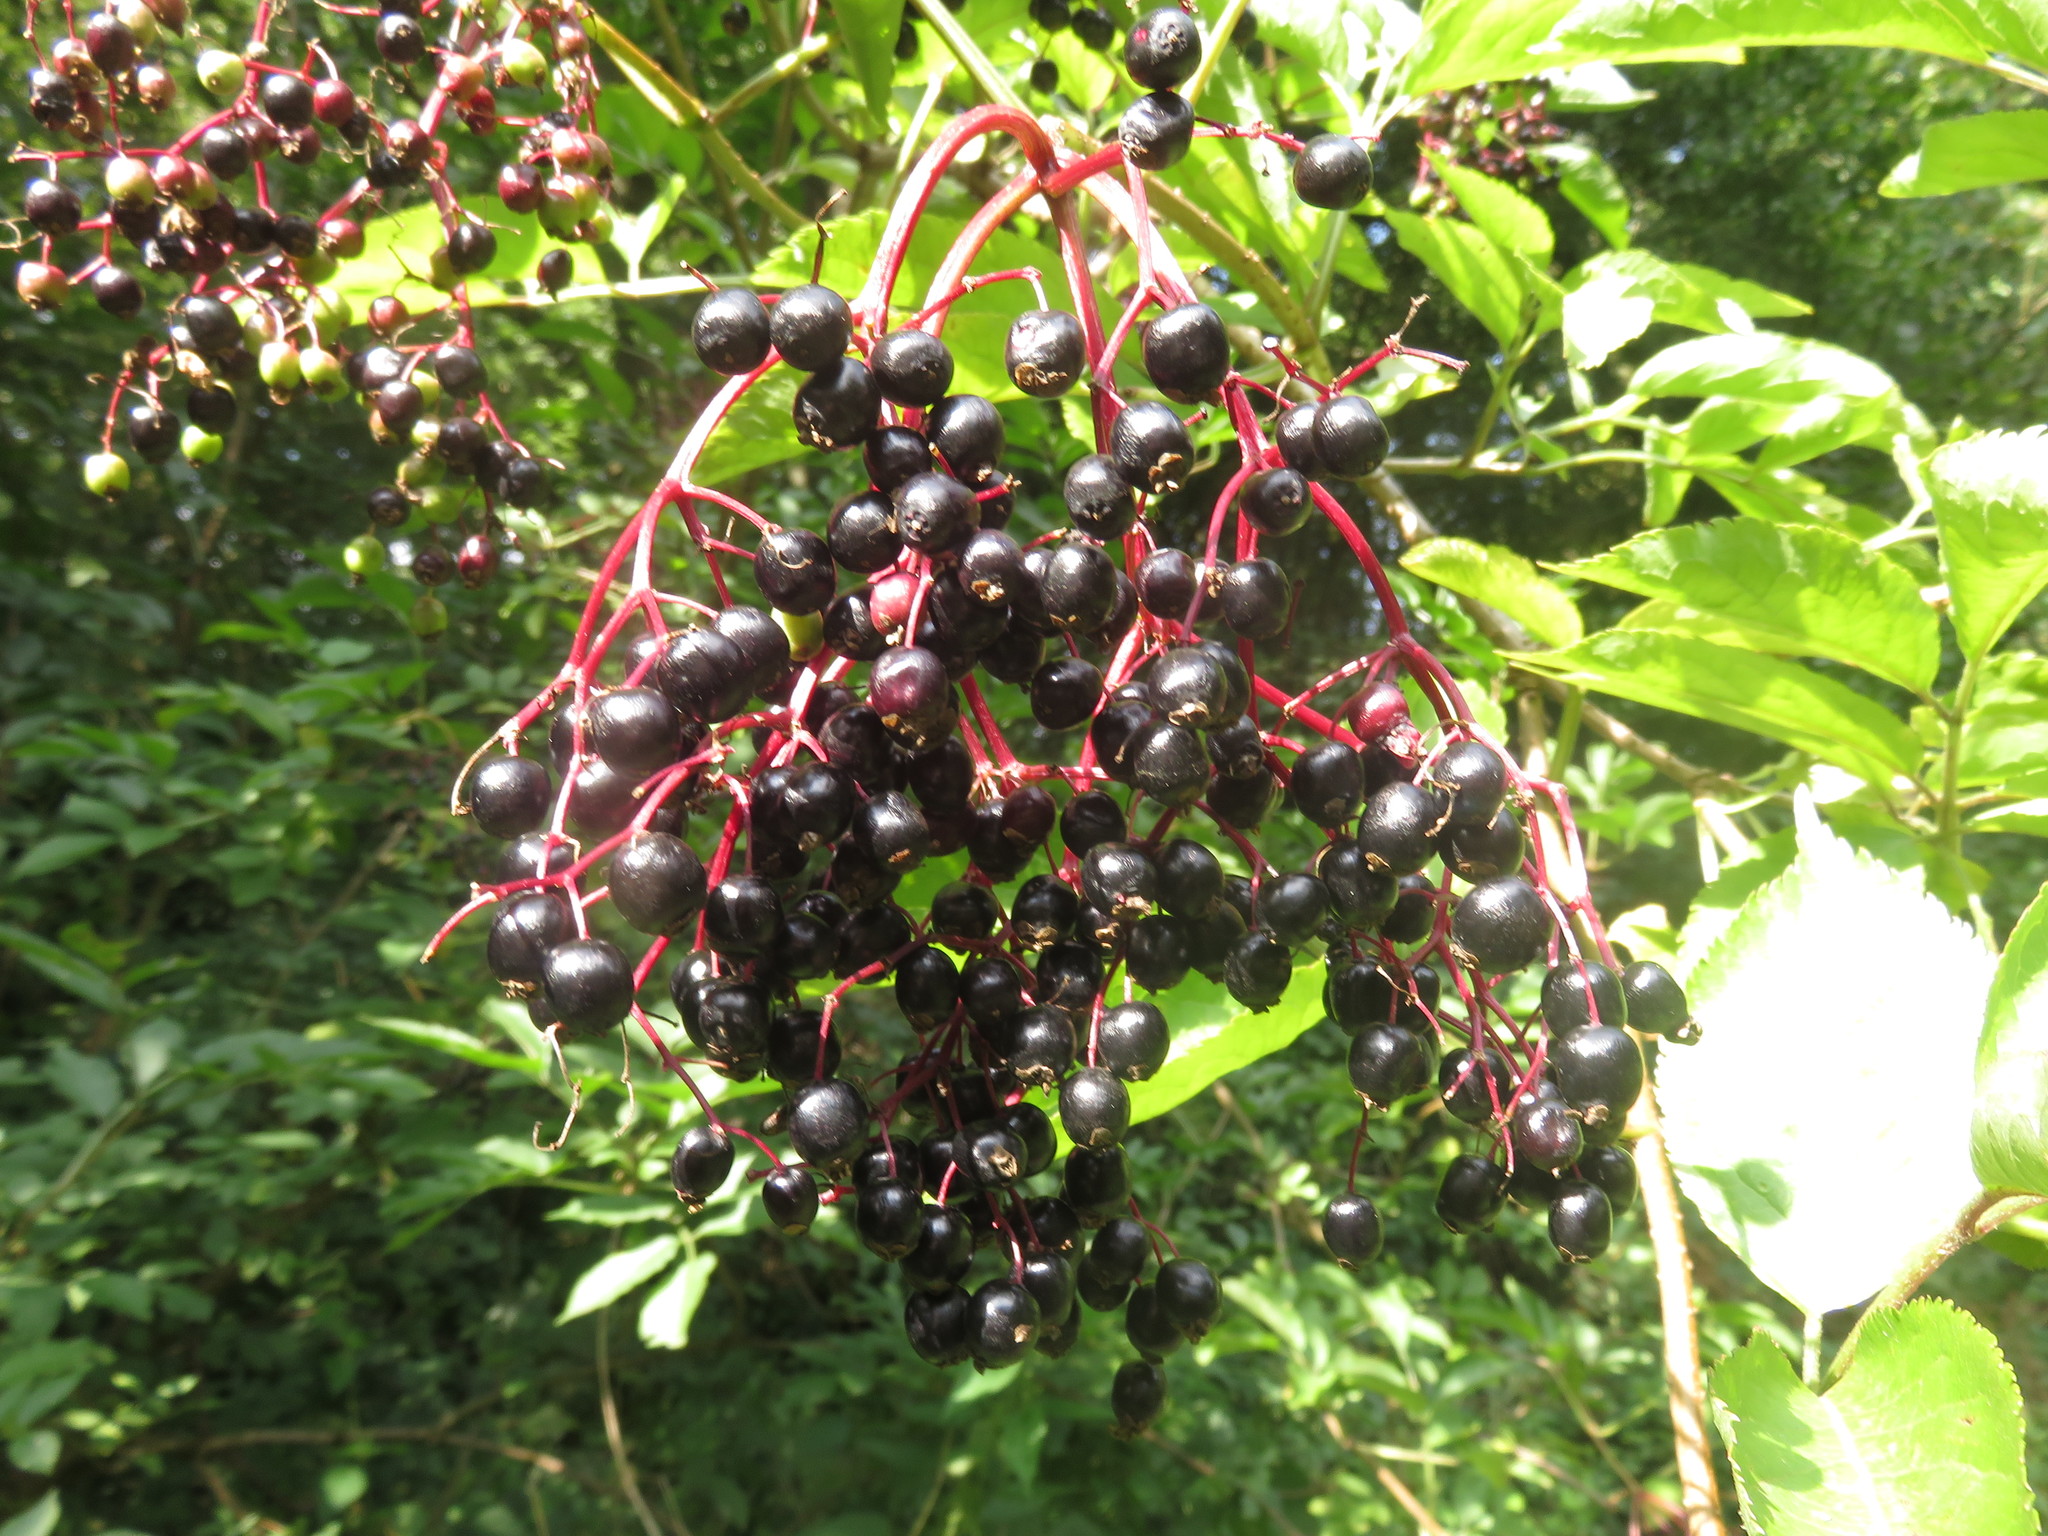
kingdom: Plantae
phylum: Tracheophyta
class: Magnoliopsida
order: Dipsacales
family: Viburnaceae
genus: Sambucus
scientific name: Sambucus nigra
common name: Elder
